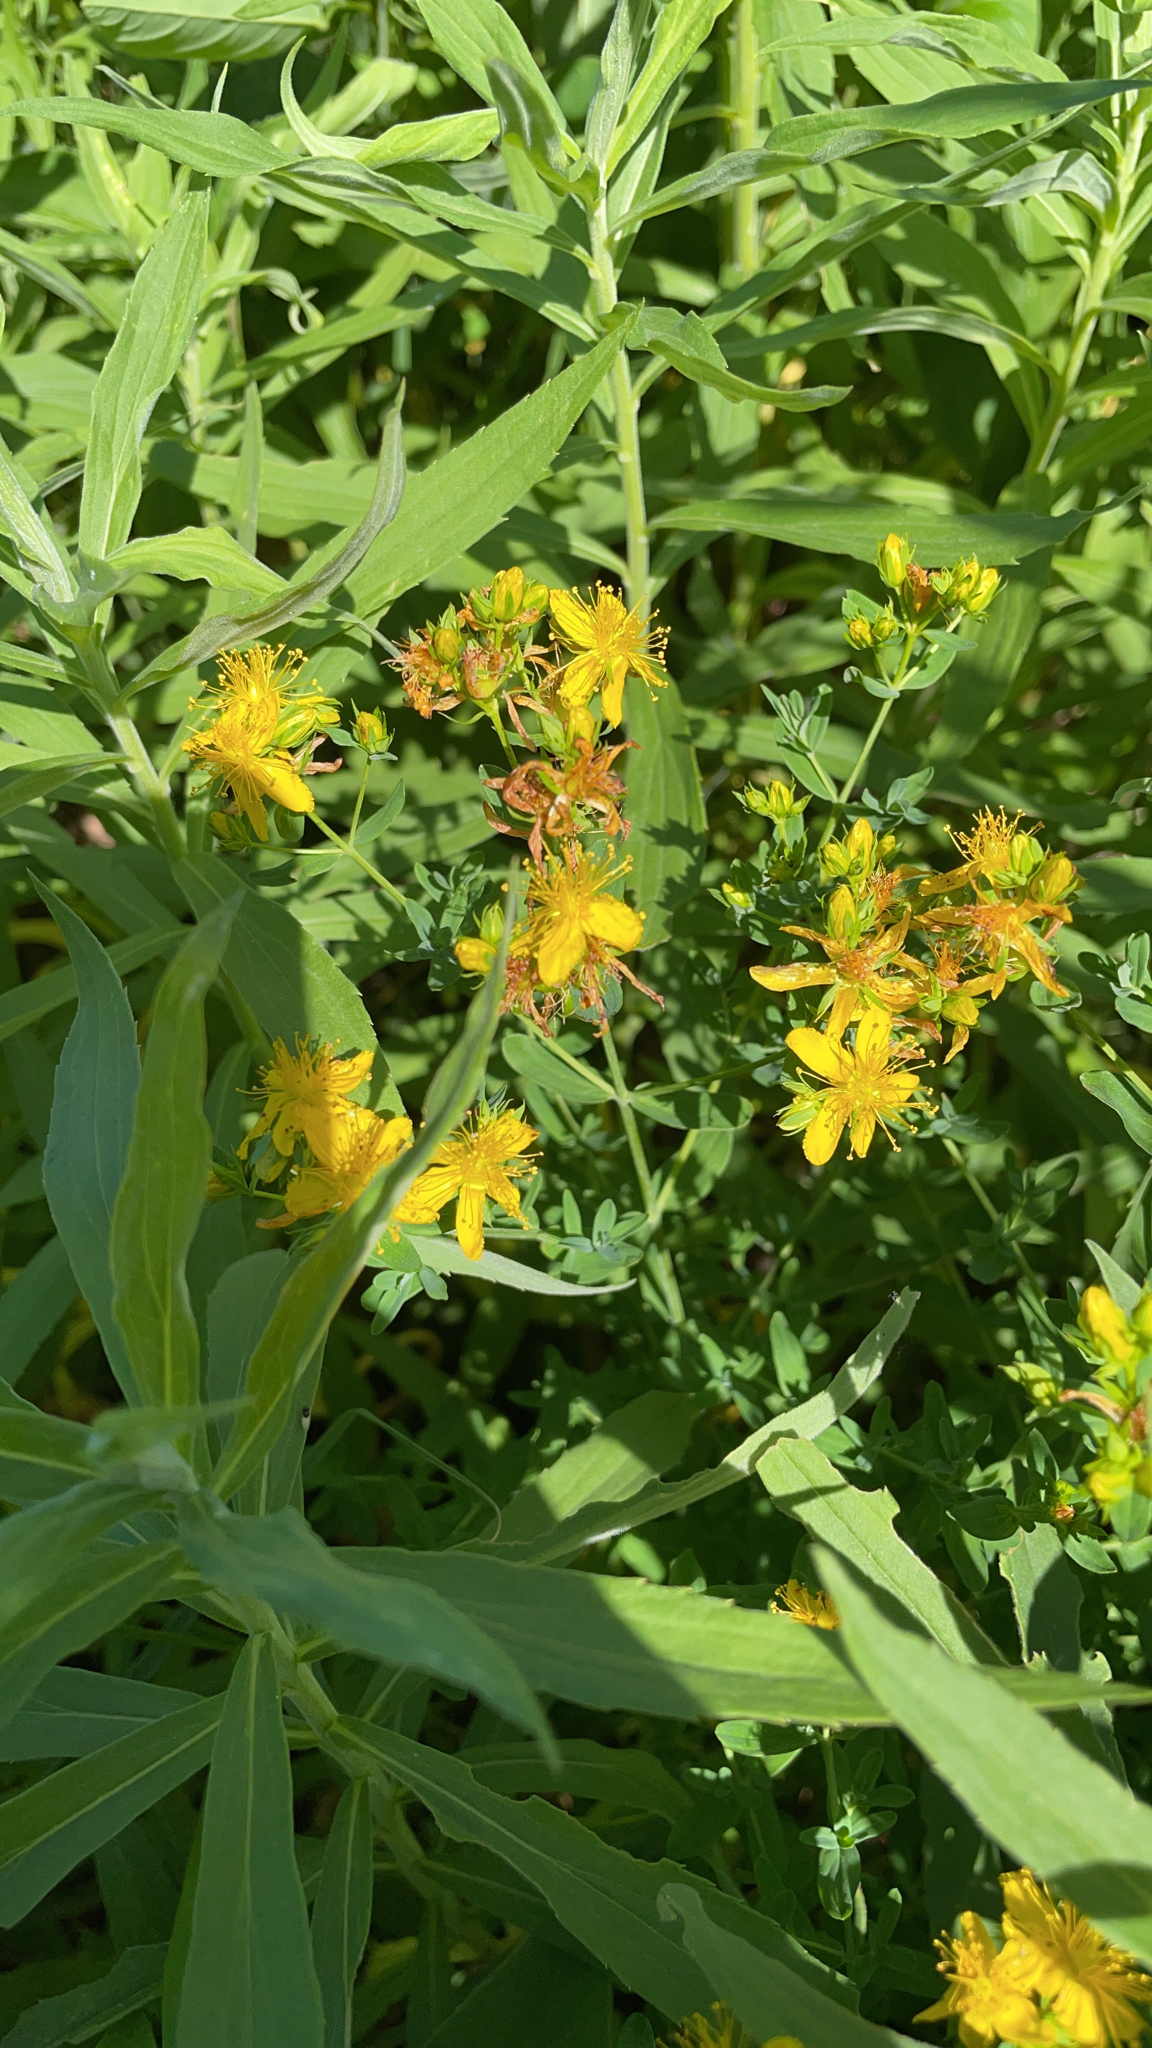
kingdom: Plantae
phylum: Tracheophyta
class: Magnoliopsida
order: Malpighiales
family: Hypericaceae
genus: Hypericum
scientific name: Hypericum perforatum
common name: Common st. johnswort
